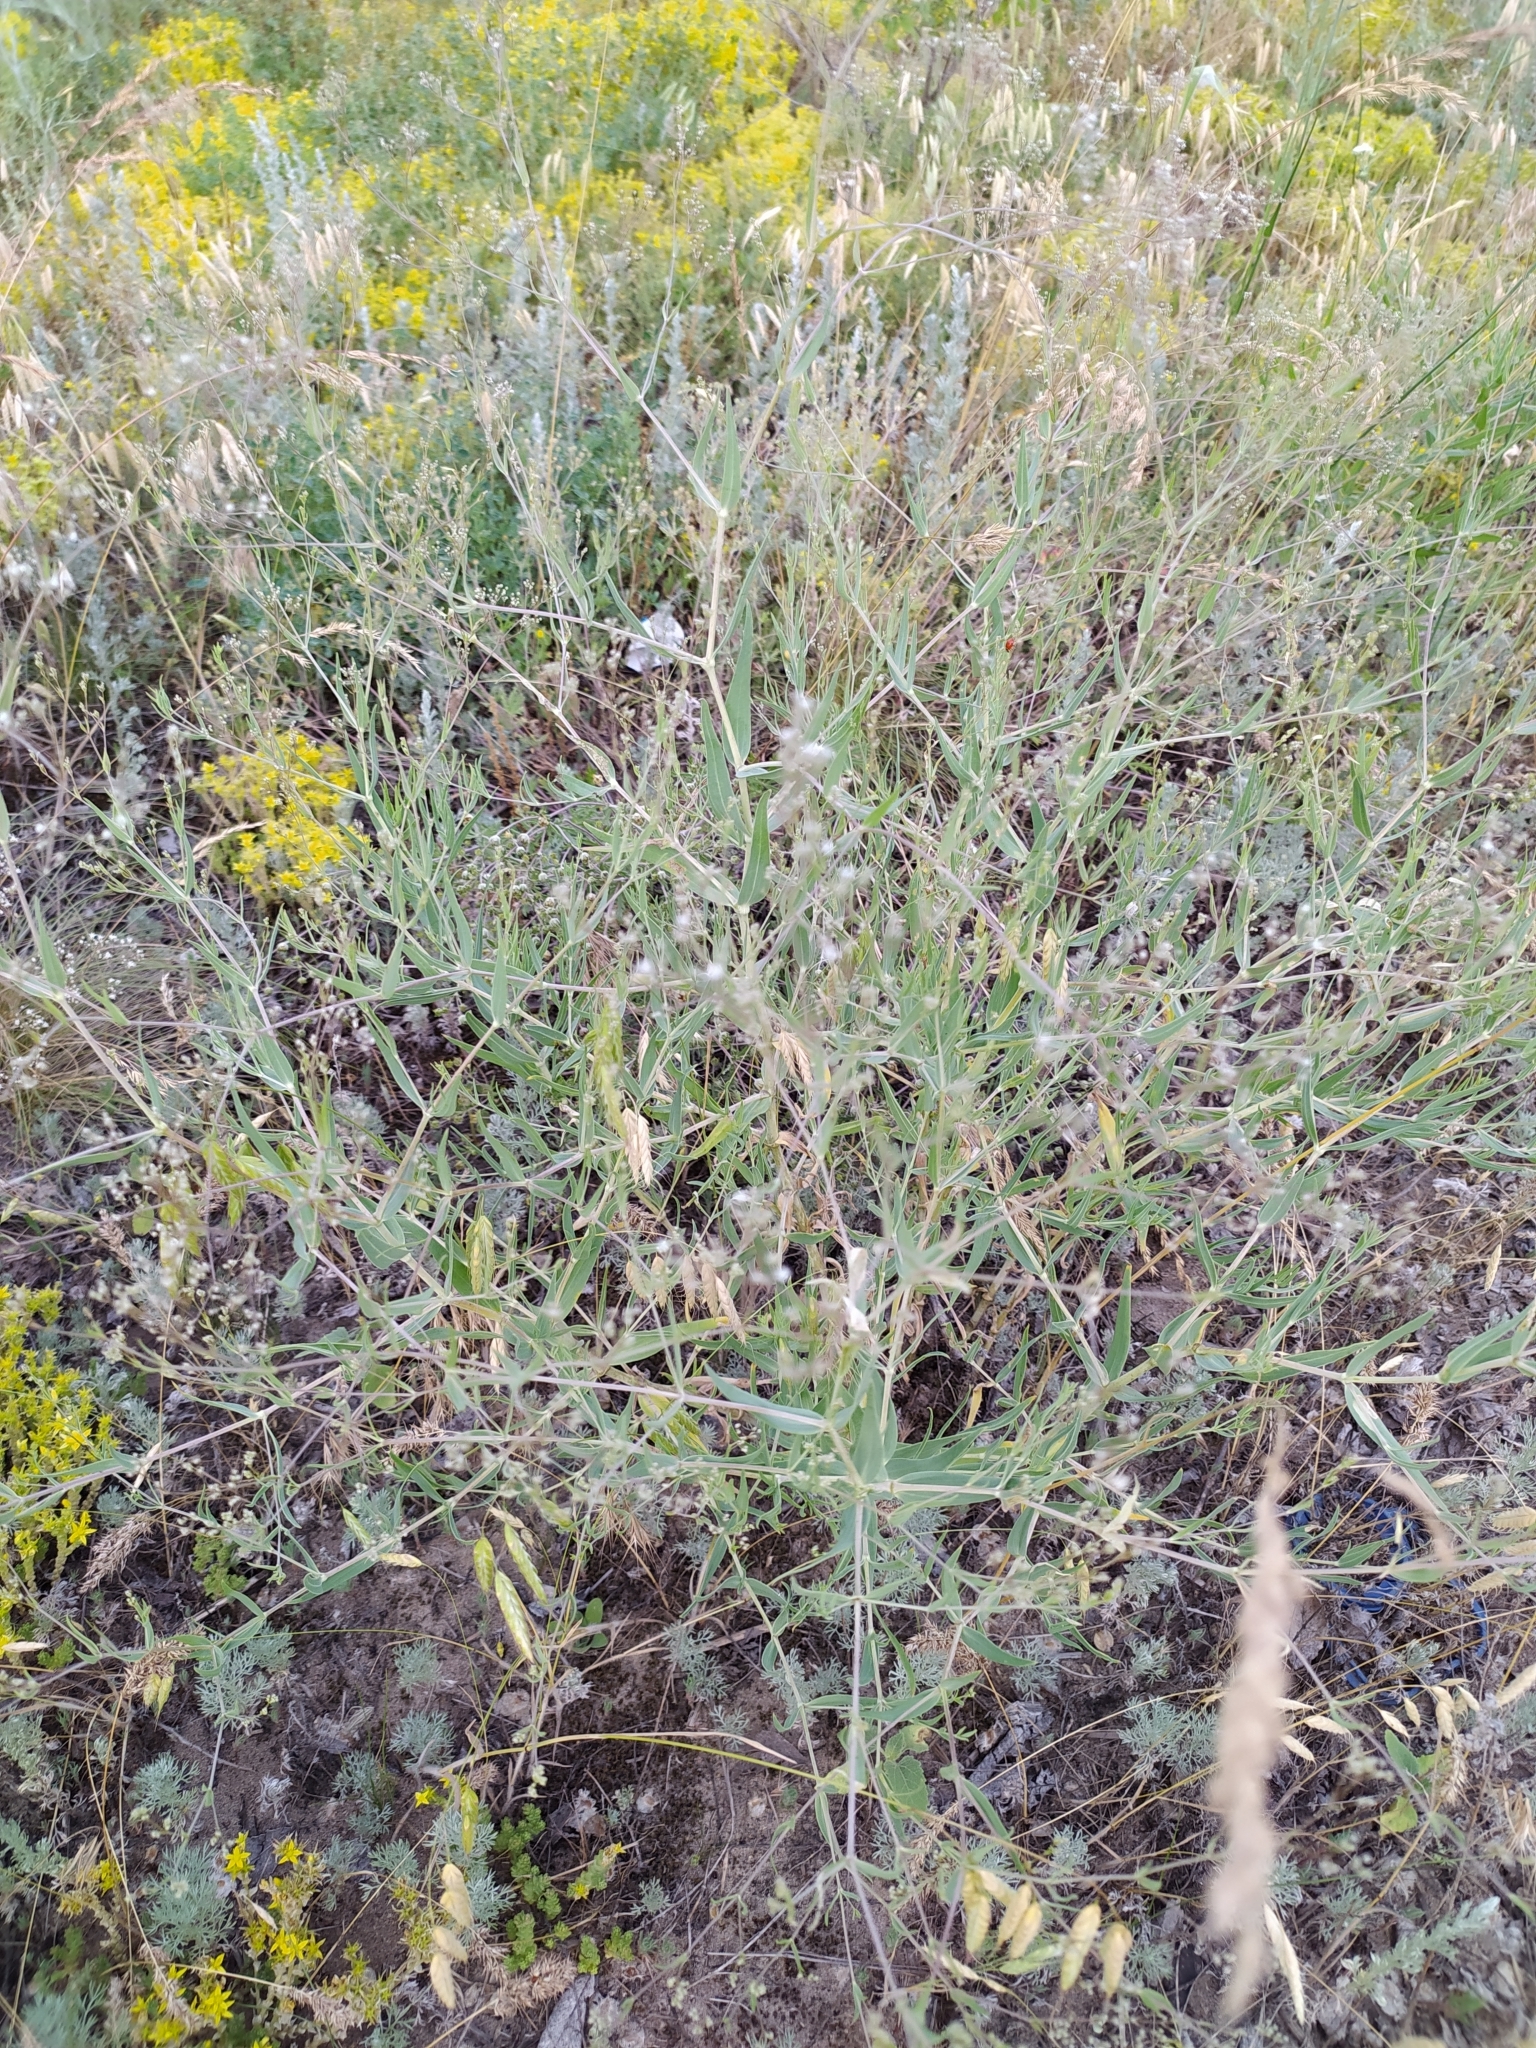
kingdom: Plantae
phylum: Tracheophyta
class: Magnoliopsida
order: Caryophyllales
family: Caryophyllaceae
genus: Gypsophila
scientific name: Gypsophila paniculata
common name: Baby's-breath
